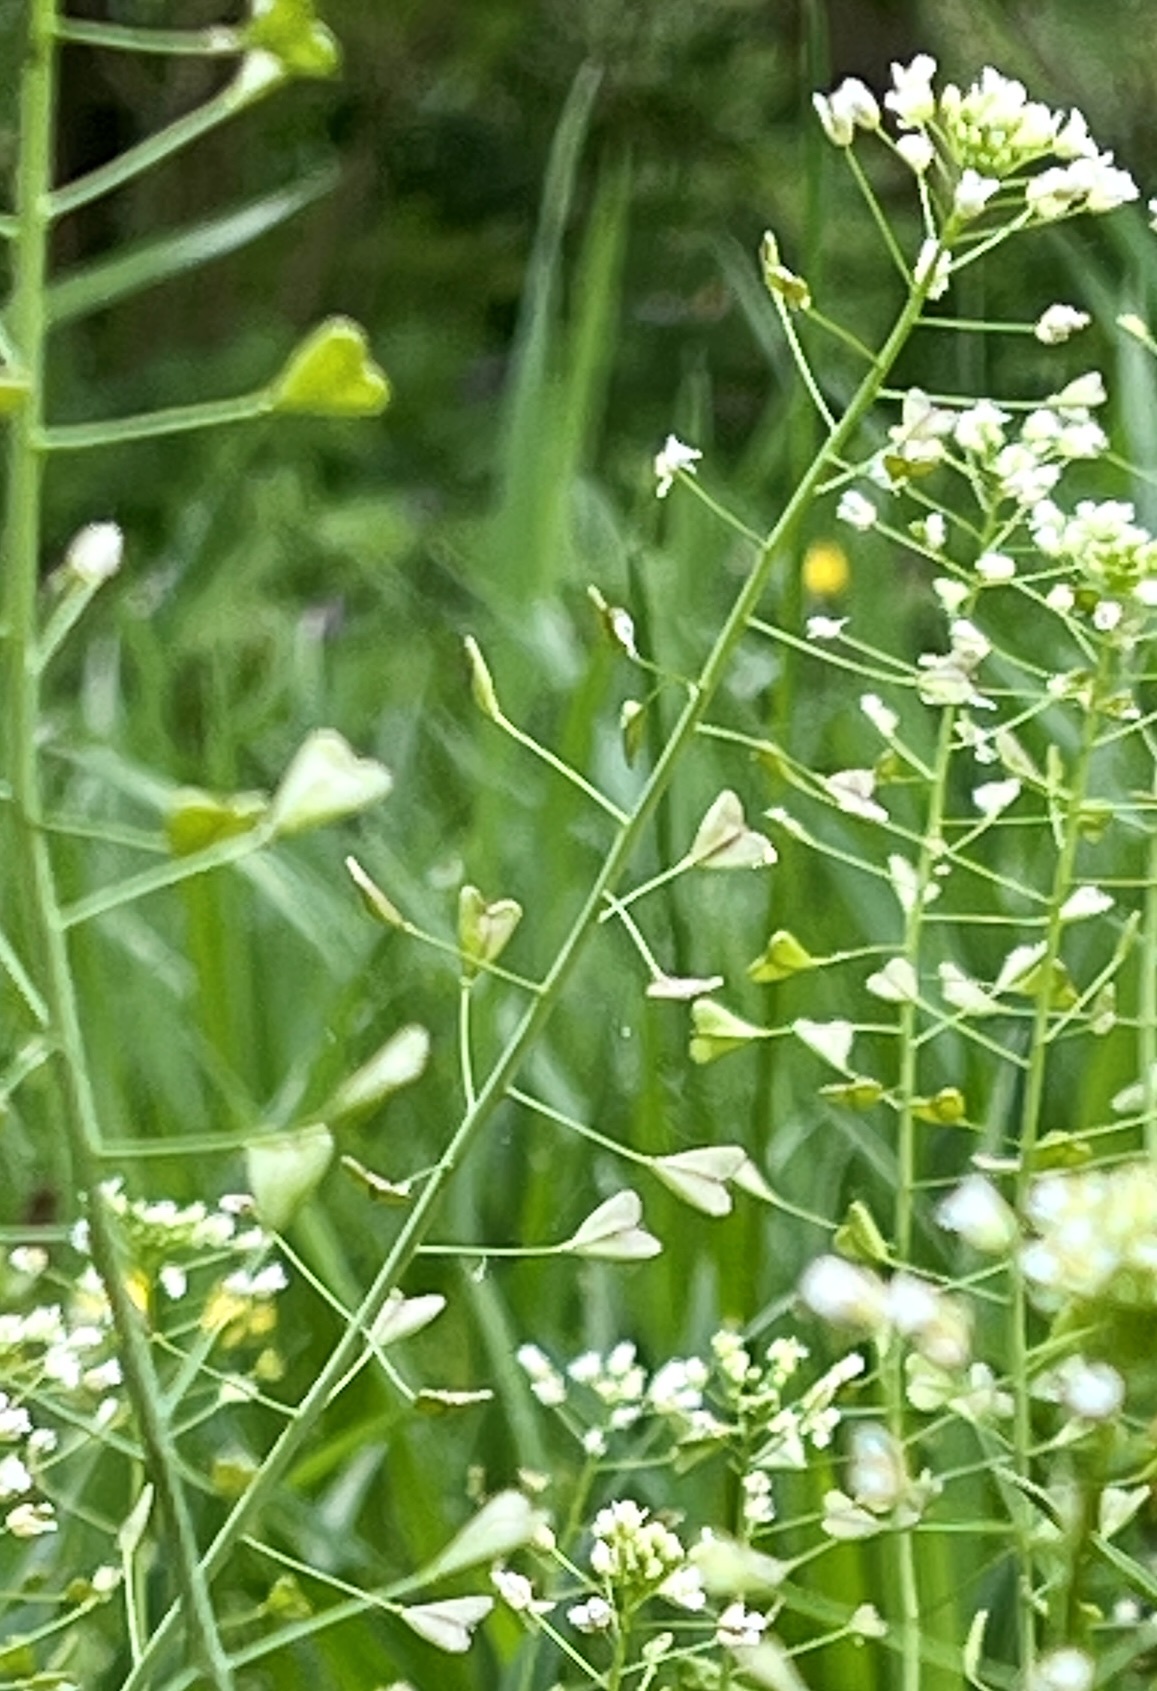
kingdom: Plantae
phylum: Tracheophyta
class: Magnoliopsida
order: Brassicales
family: Brassicaceae
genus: Capsella
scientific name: Capsella bursa-pastoris
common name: Shepherd's purse
